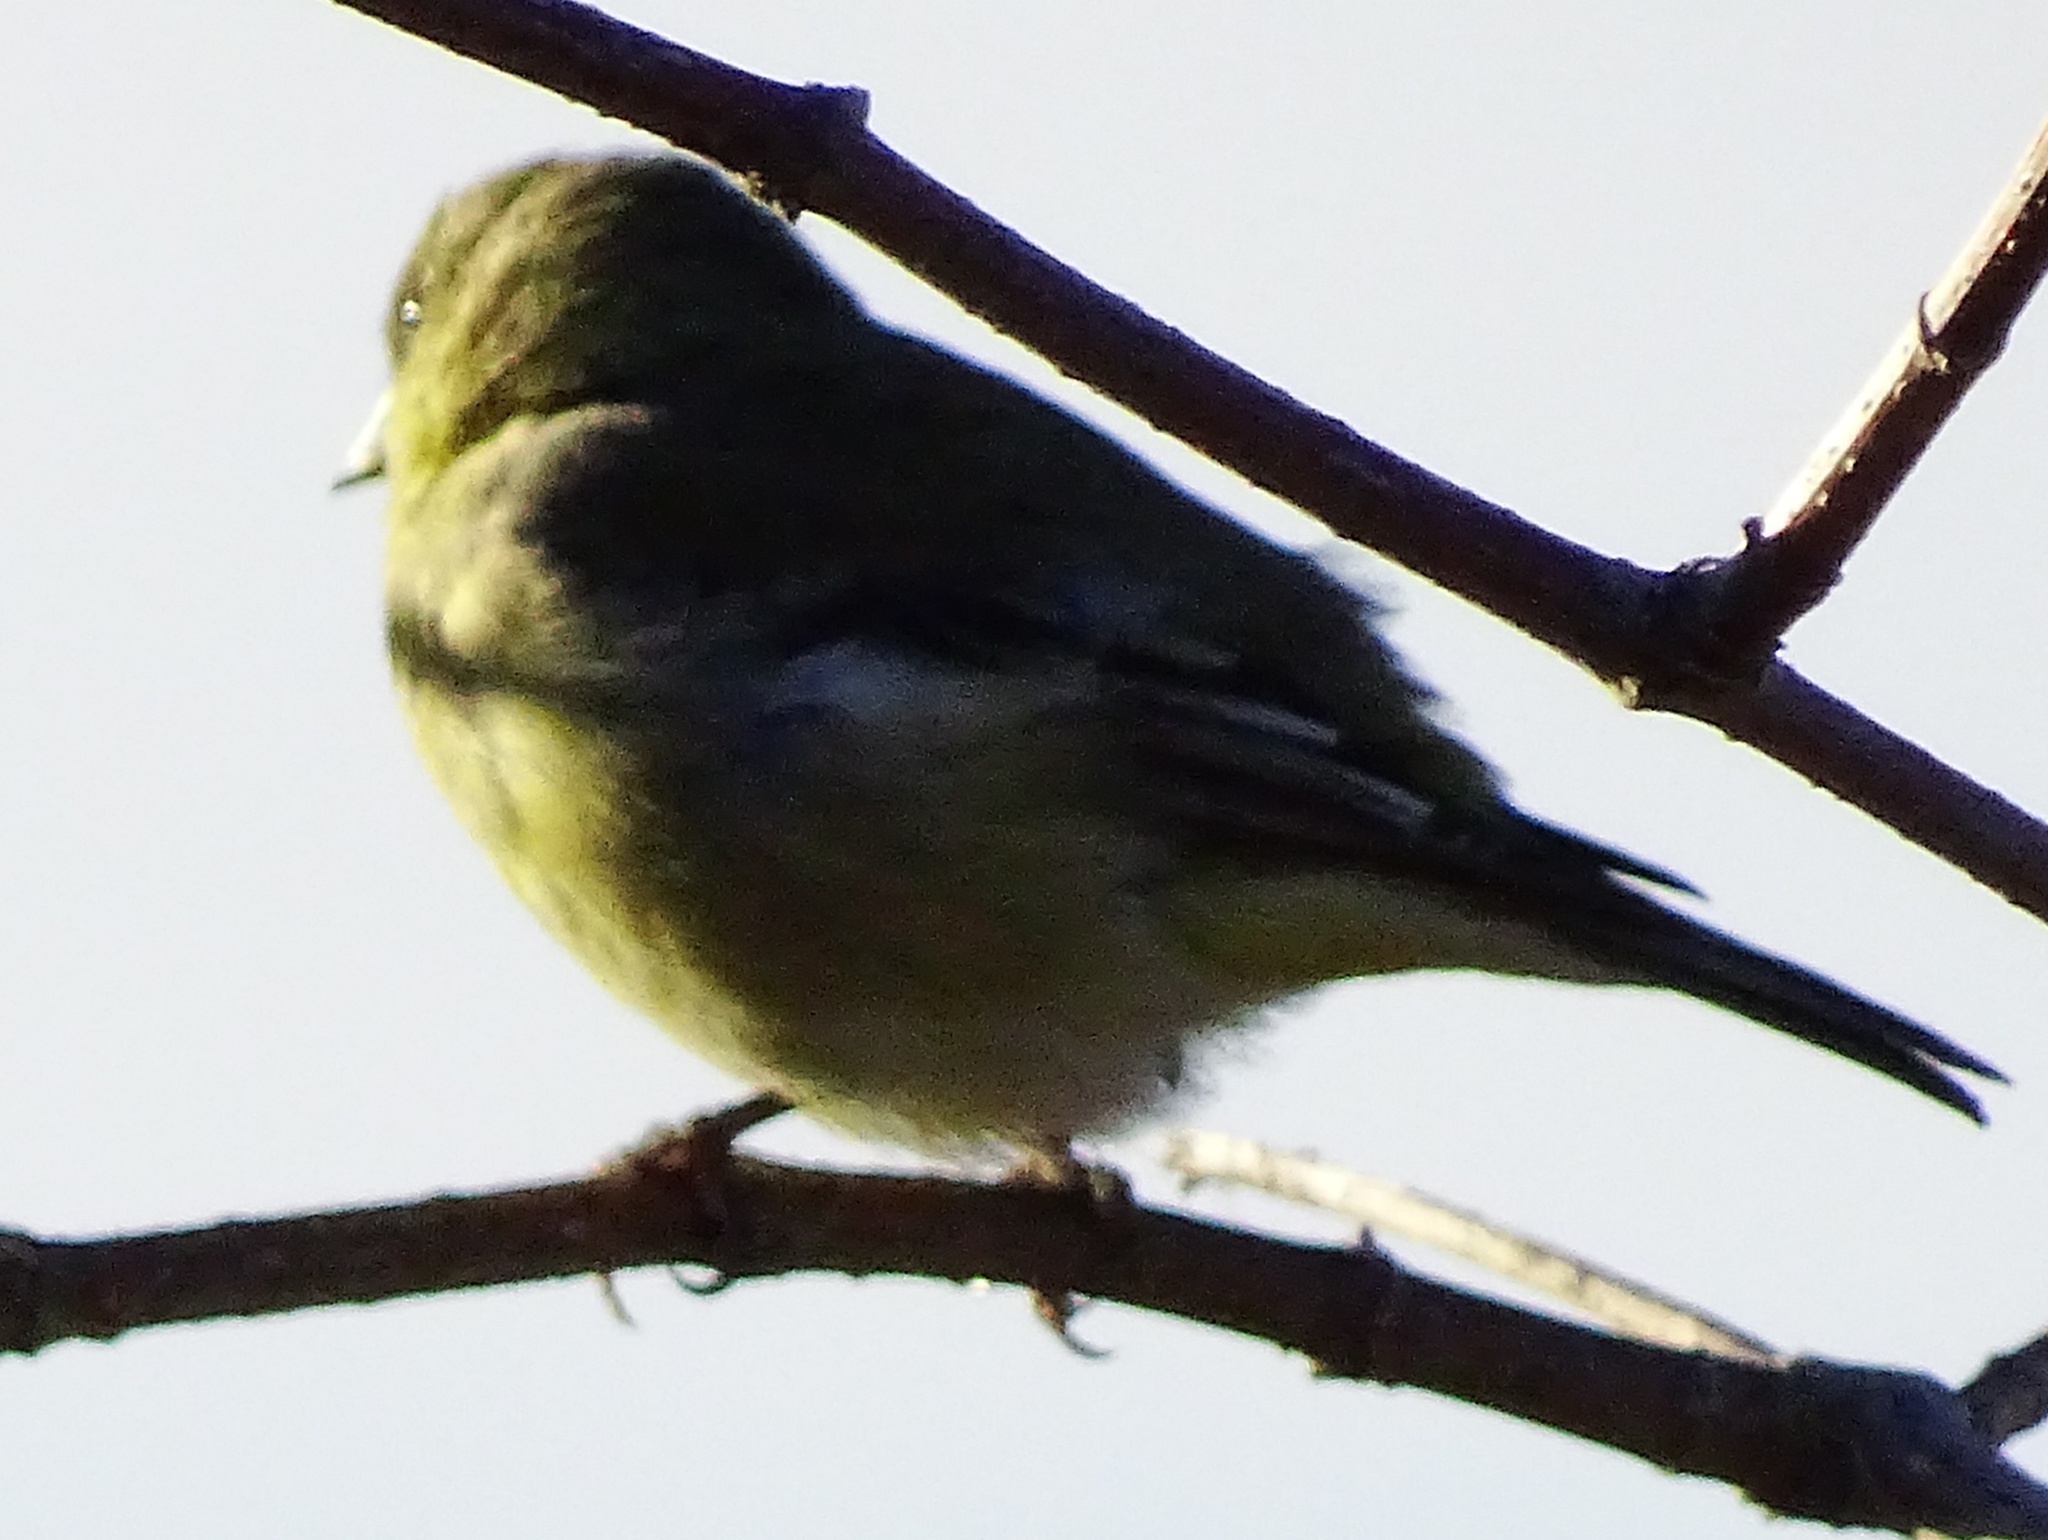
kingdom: Animalia
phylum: Chordata
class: Aves
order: Passeriformes
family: Fringillidae
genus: Spinus
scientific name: Spinus tristis
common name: American goldfinch
